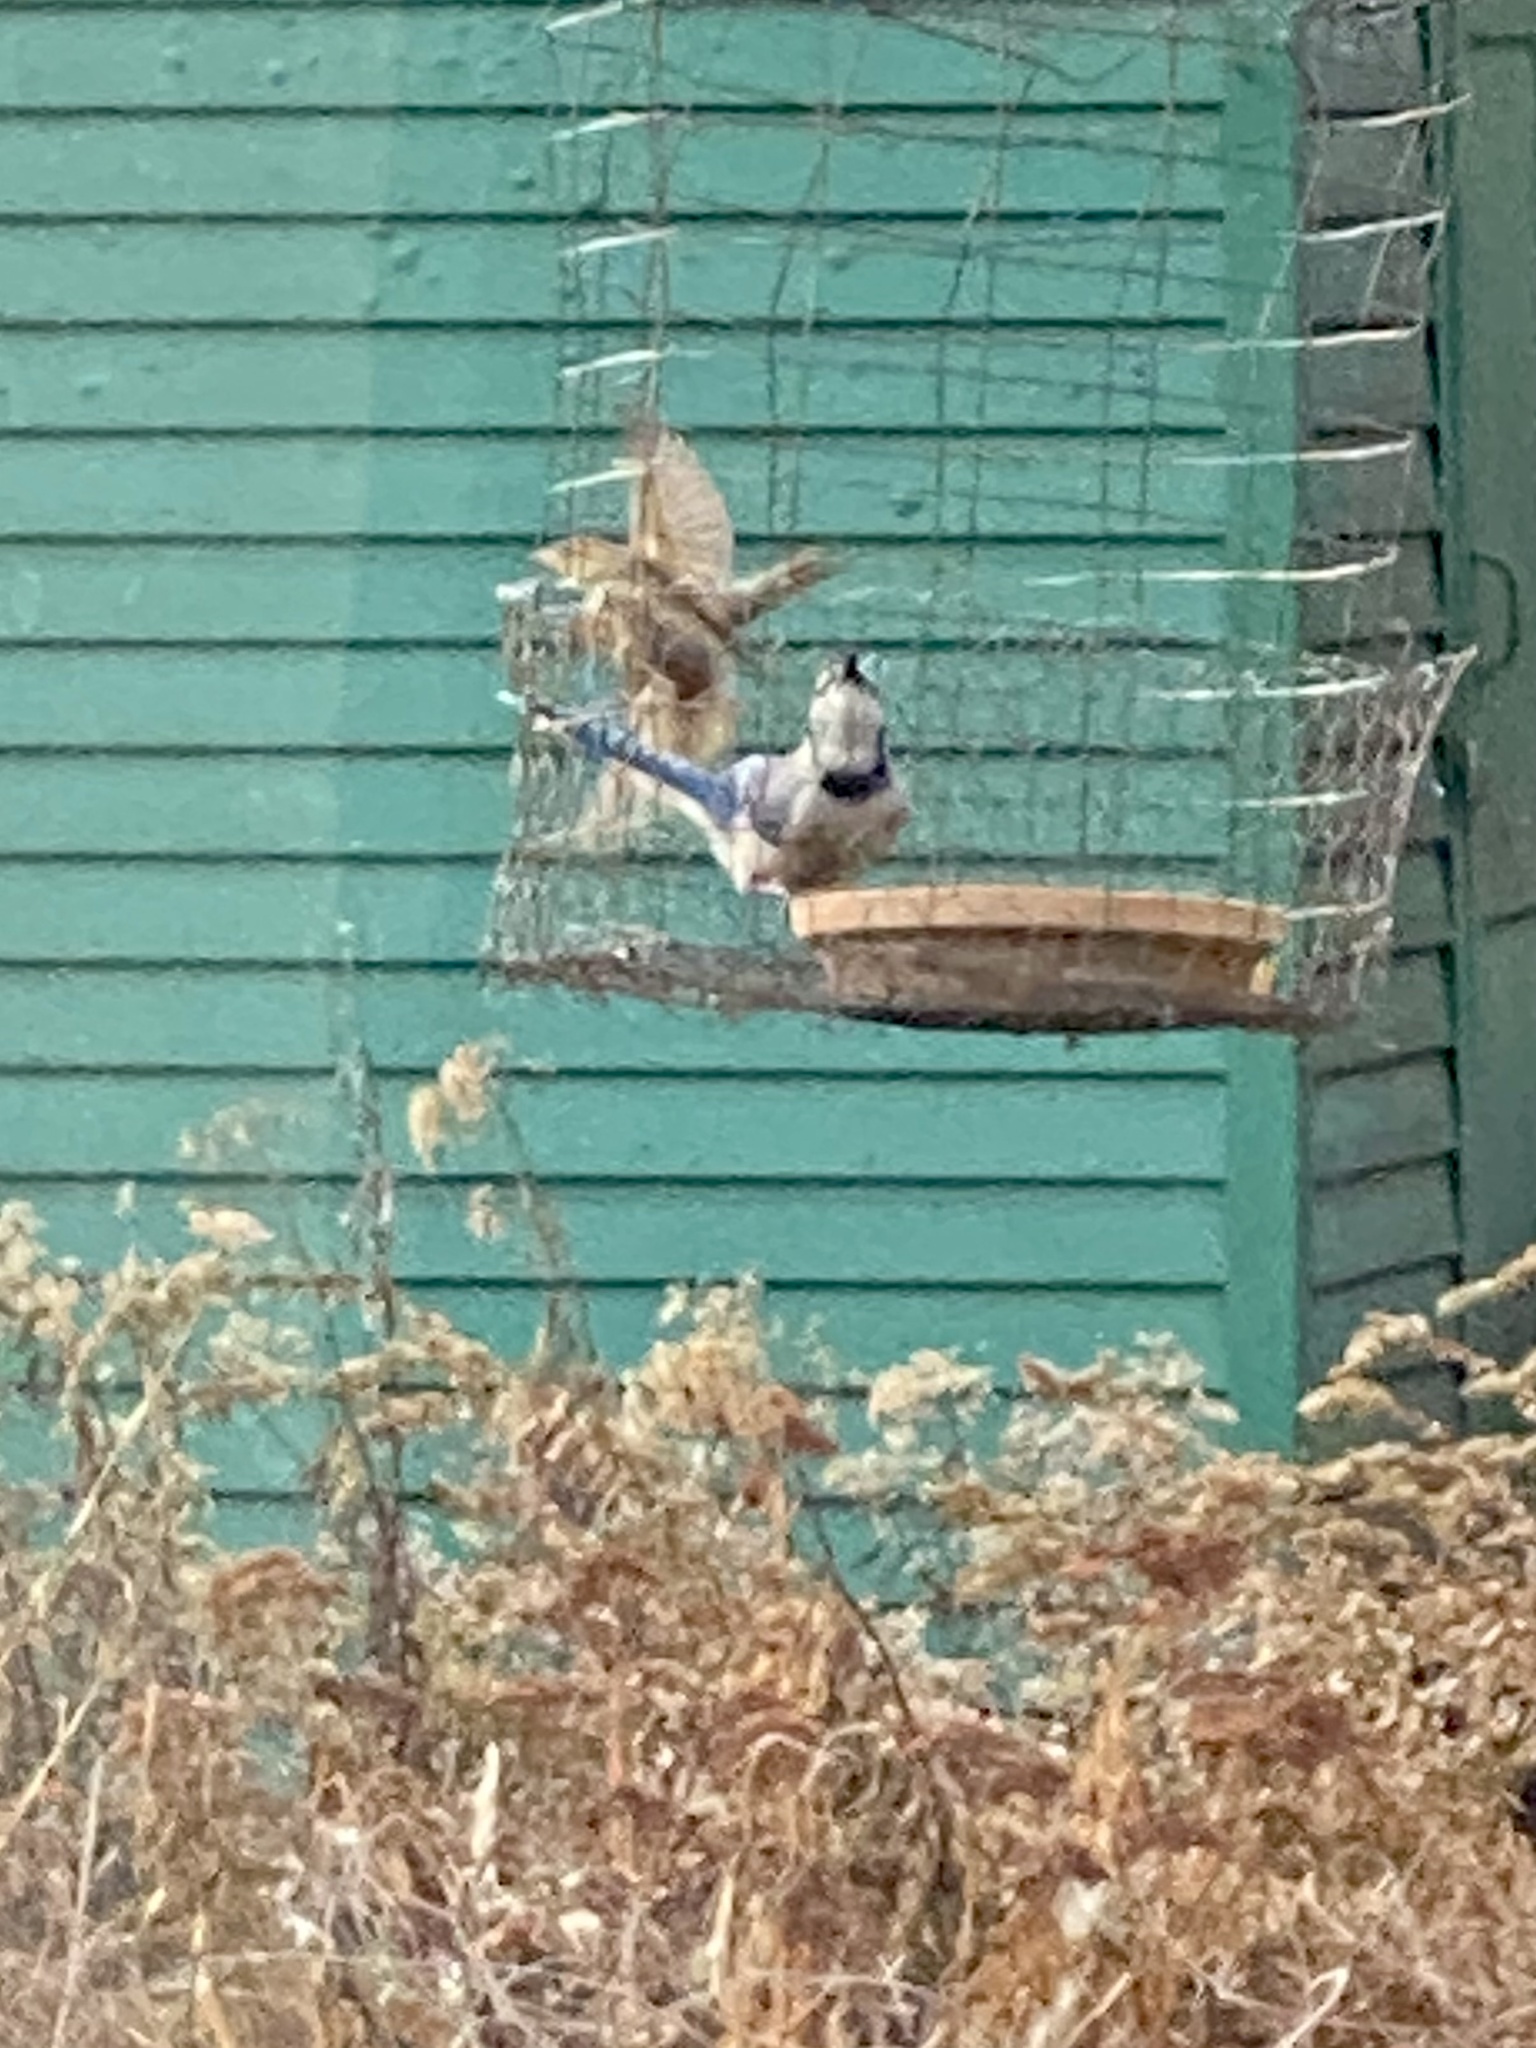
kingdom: Animalia
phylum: Chordata
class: Aves
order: Passeriformes
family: Corvidae
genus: Cyanocitta
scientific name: Cyanocitta cristata
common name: Blue jay
